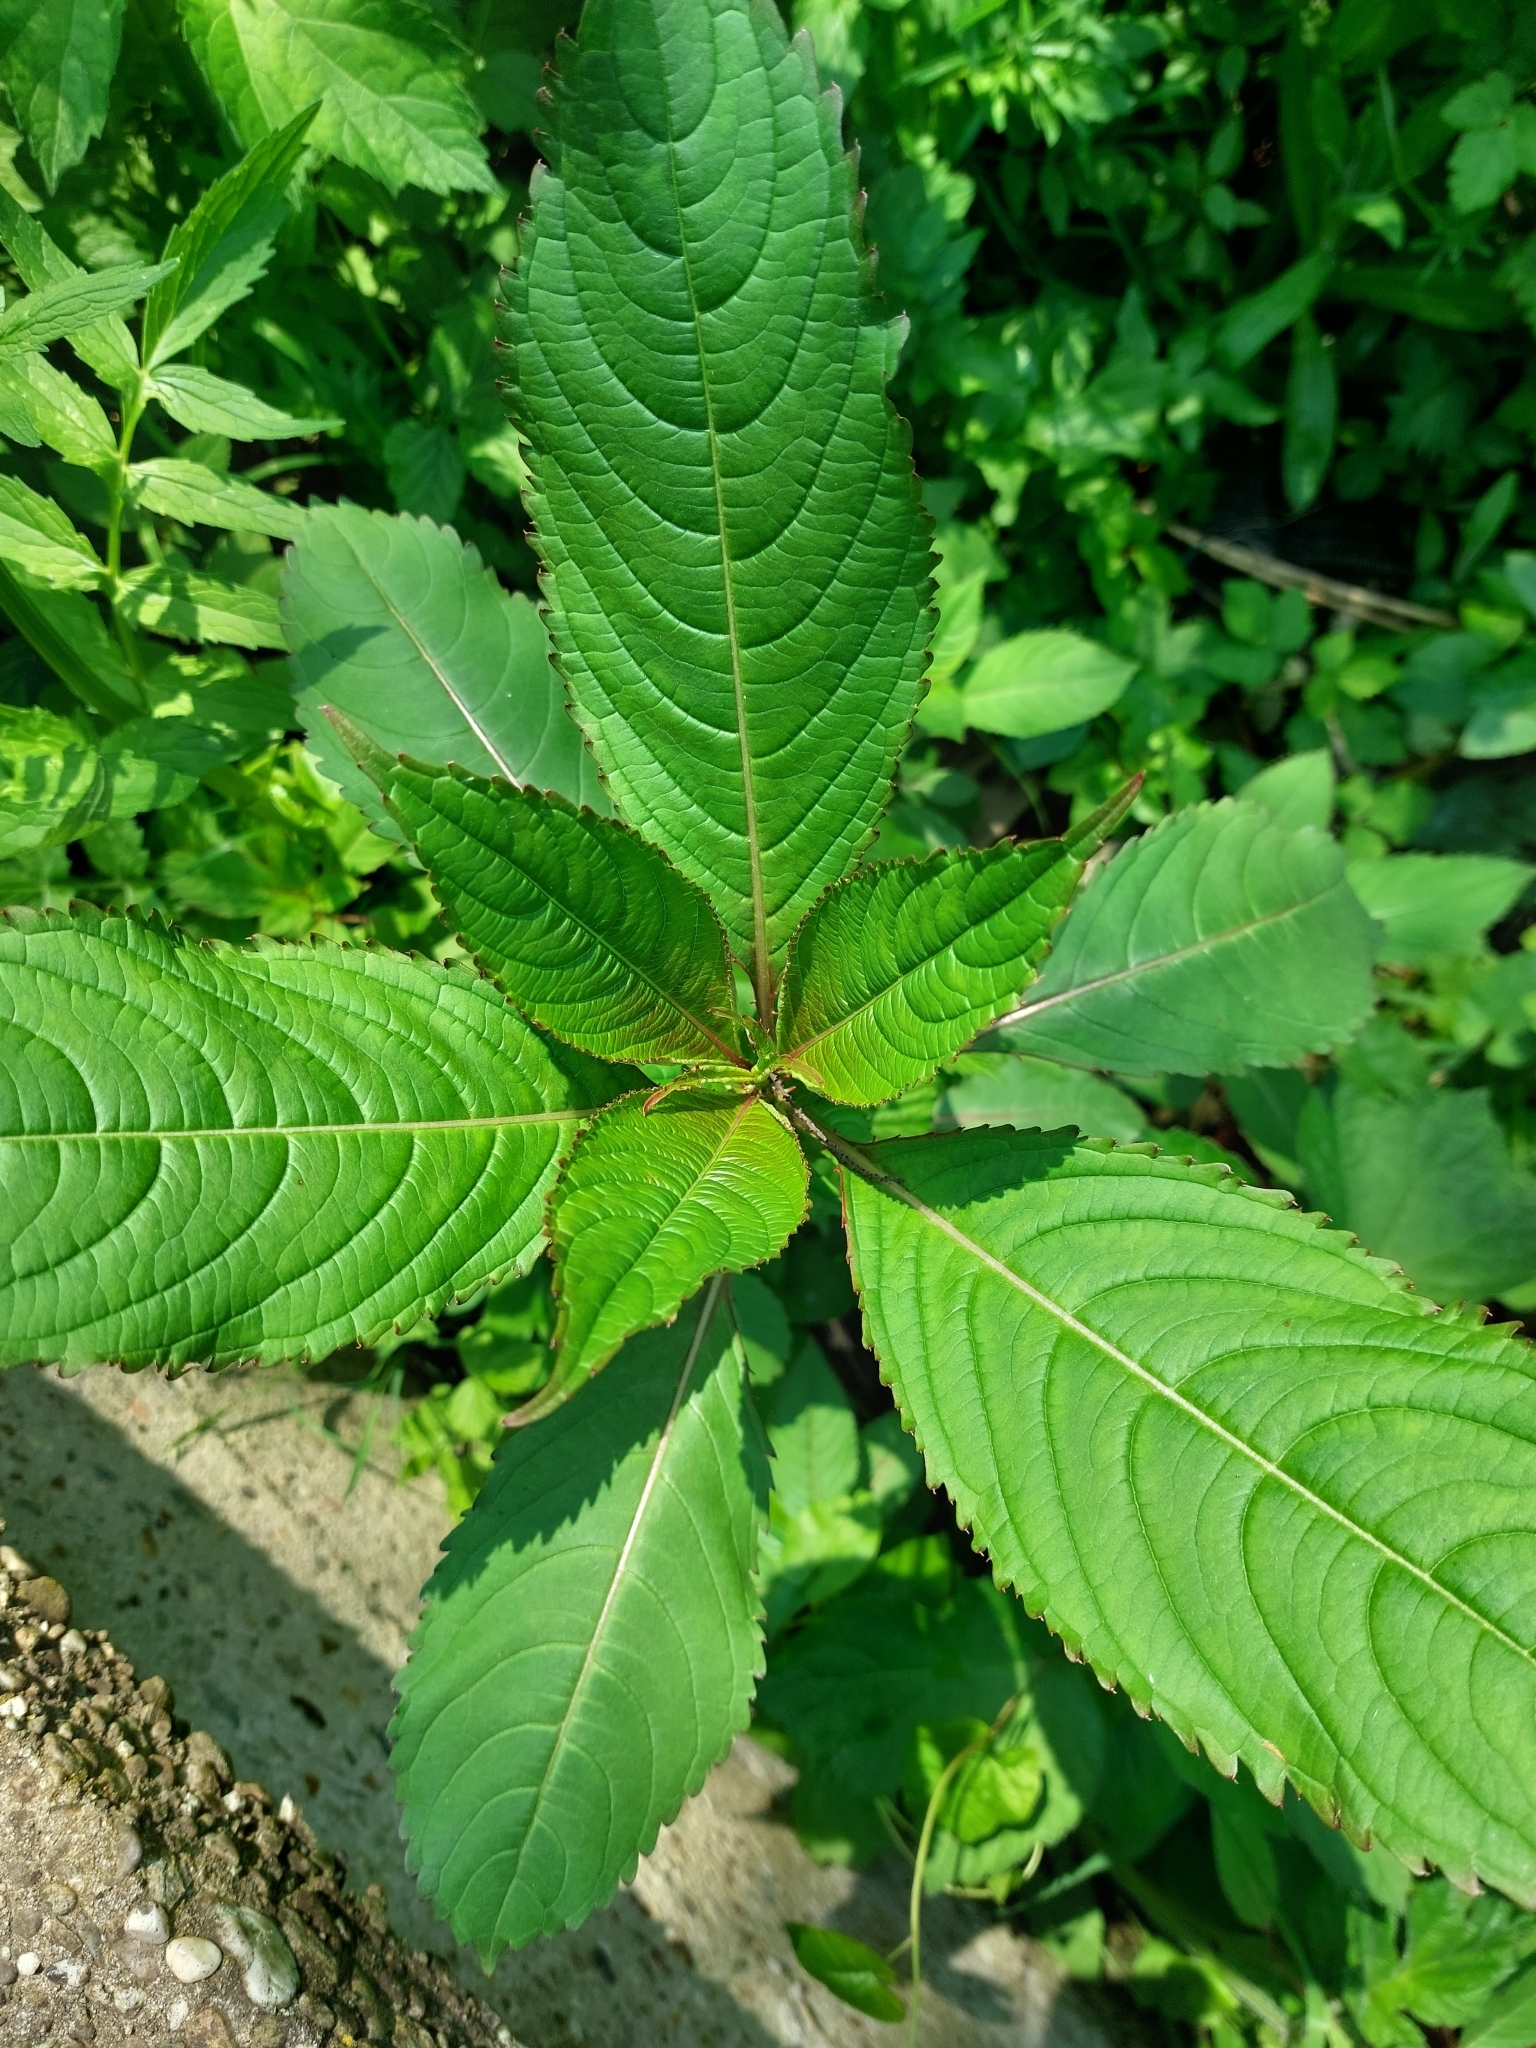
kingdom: Plantae
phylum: Tracheophyta
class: Magnoliopsida
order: Ericales
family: Balsaminaceae
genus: Impatiens
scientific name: Impatiens glandulifera
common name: Himalayan balsam
